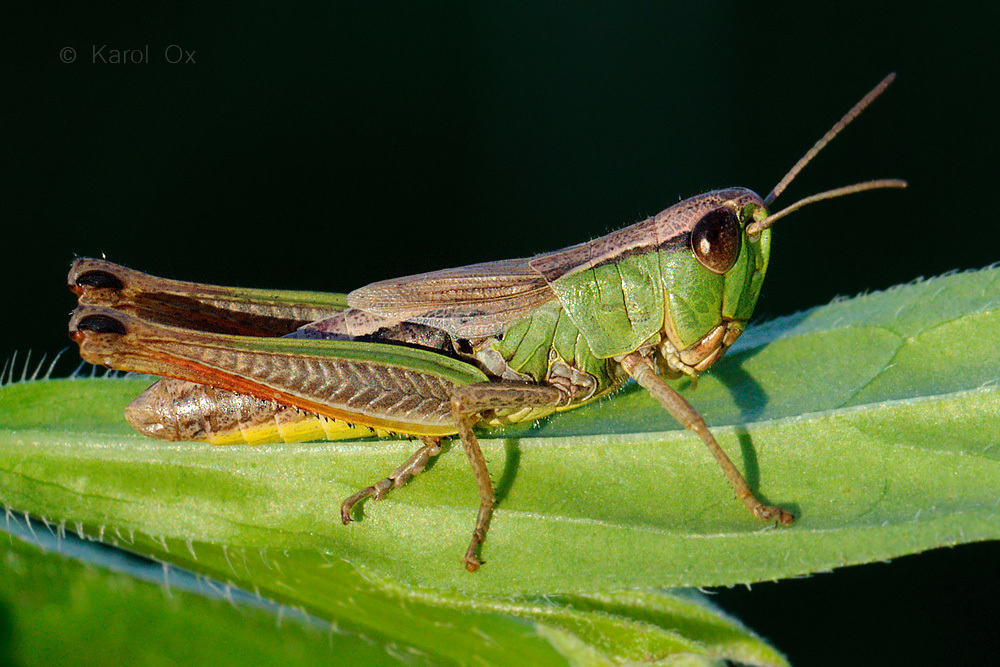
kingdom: Animalia
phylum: Arthropoda
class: Insecta
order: Orthoptera
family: Acrididae
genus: Pseudochorthippus
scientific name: Pseudochorthippus parallelus
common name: Meadow grasshopper
